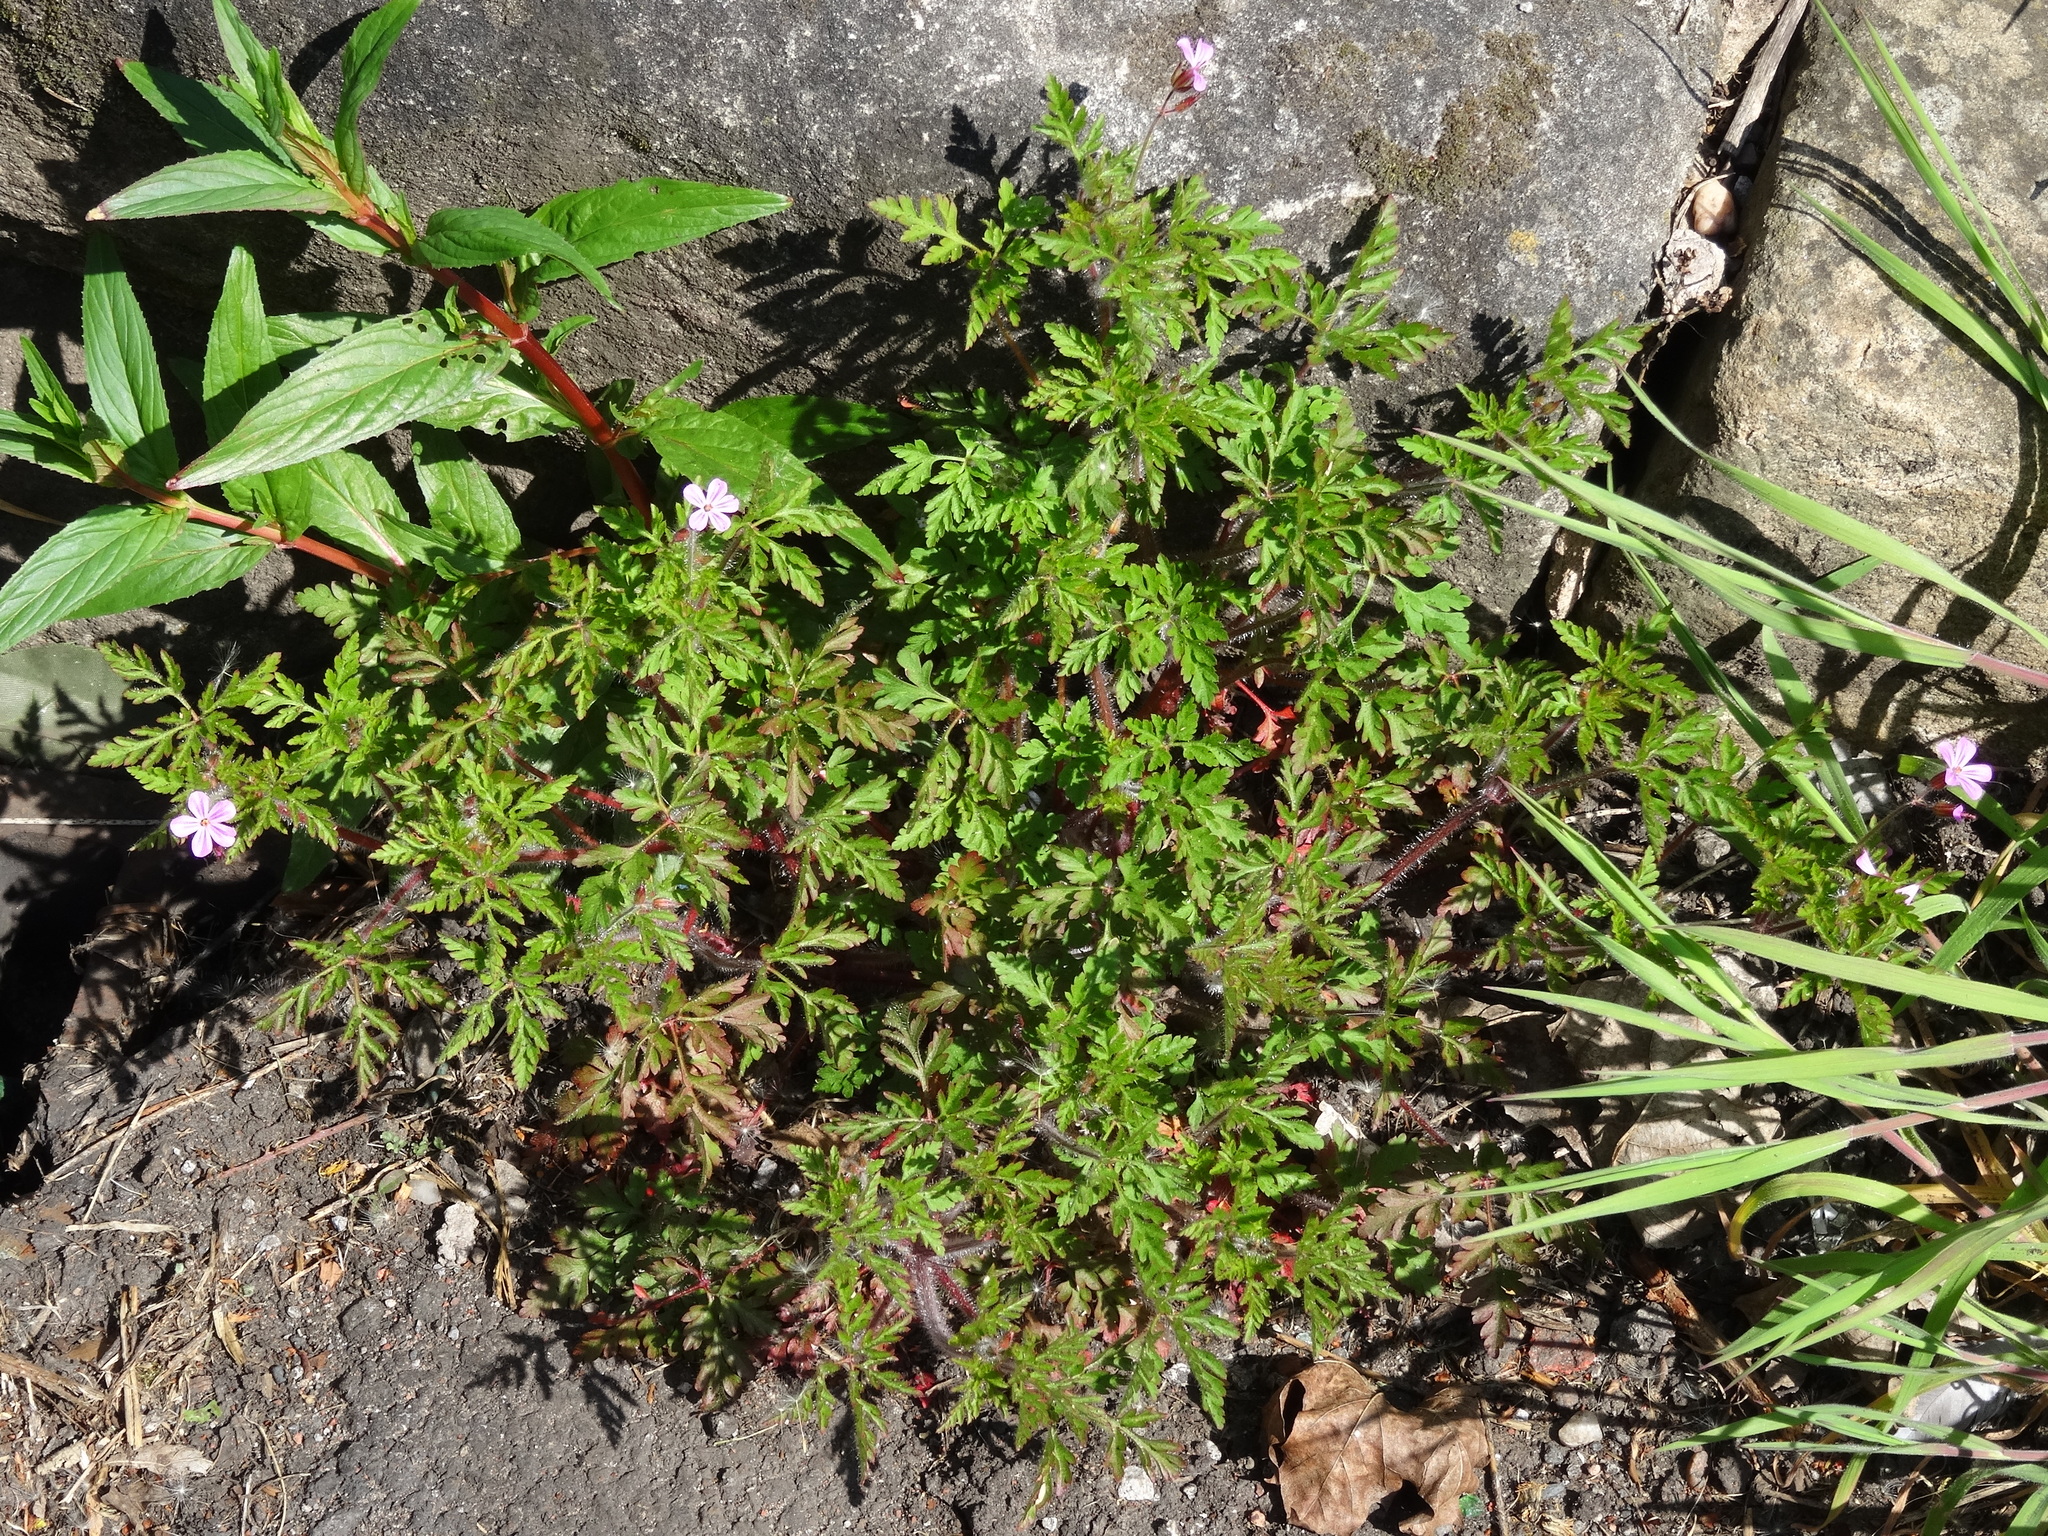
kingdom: Plantae
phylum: Tracheophyta
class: Magnoliopsida
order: Geraniales
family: Geraniaceae
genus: Geranium
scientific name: Geranium robertianum
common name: Herb-robert
